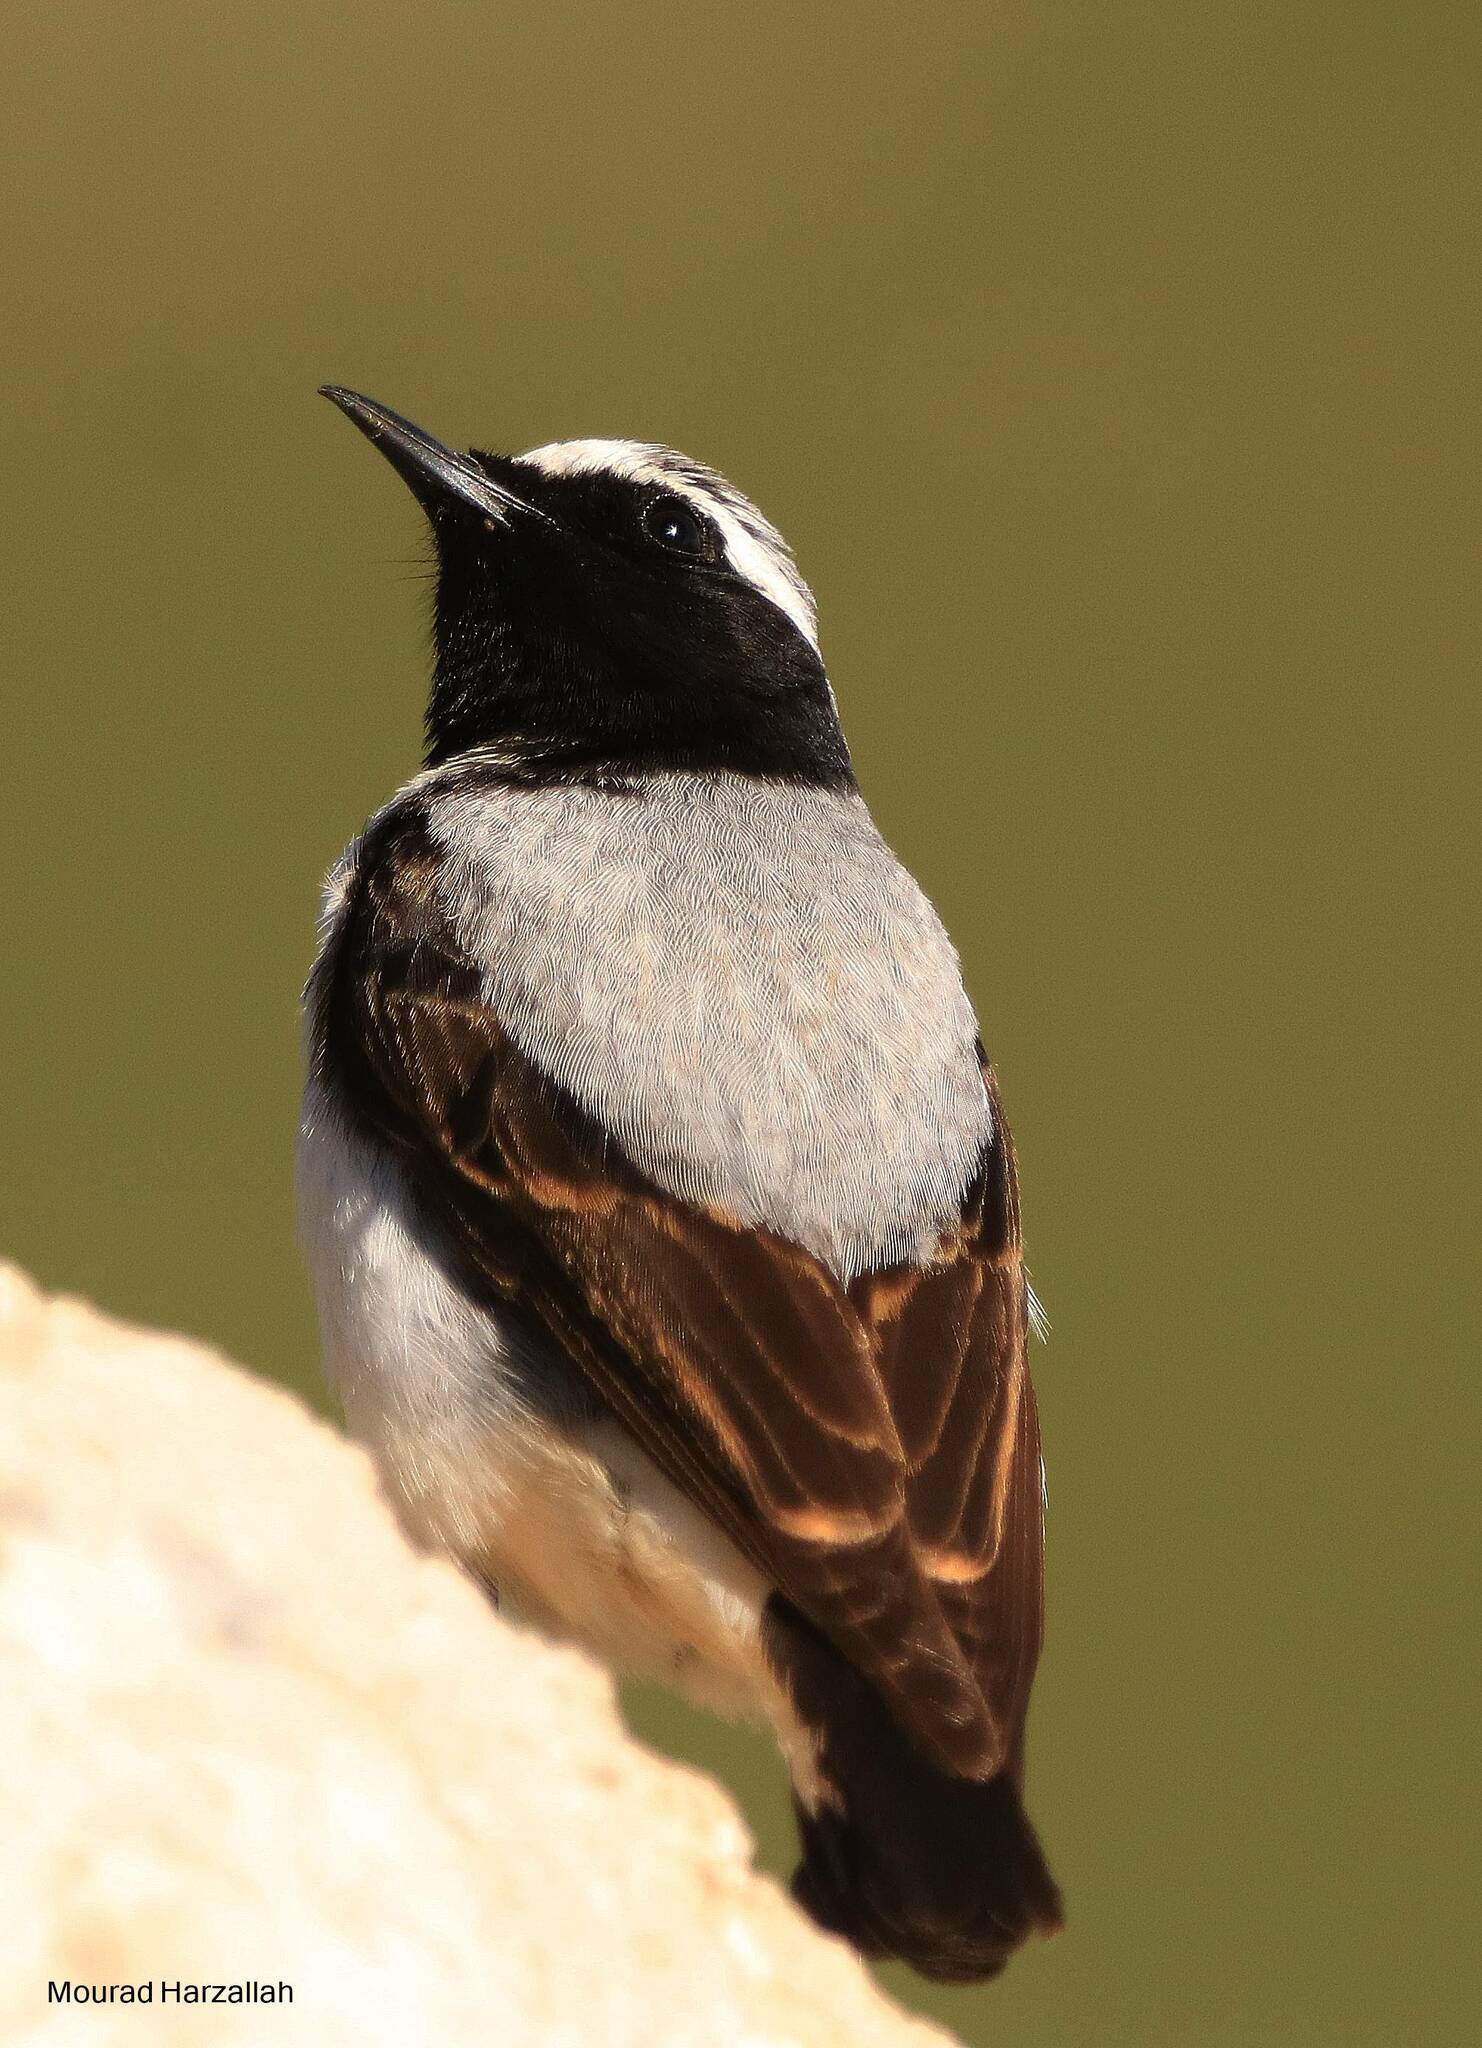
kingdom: Animalia
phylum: Chordata
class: Aves
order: Passeriformes
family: Muscicapidae
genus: Oenanthe
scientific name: Oenanthe oenanthe
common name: Northern wheatear
